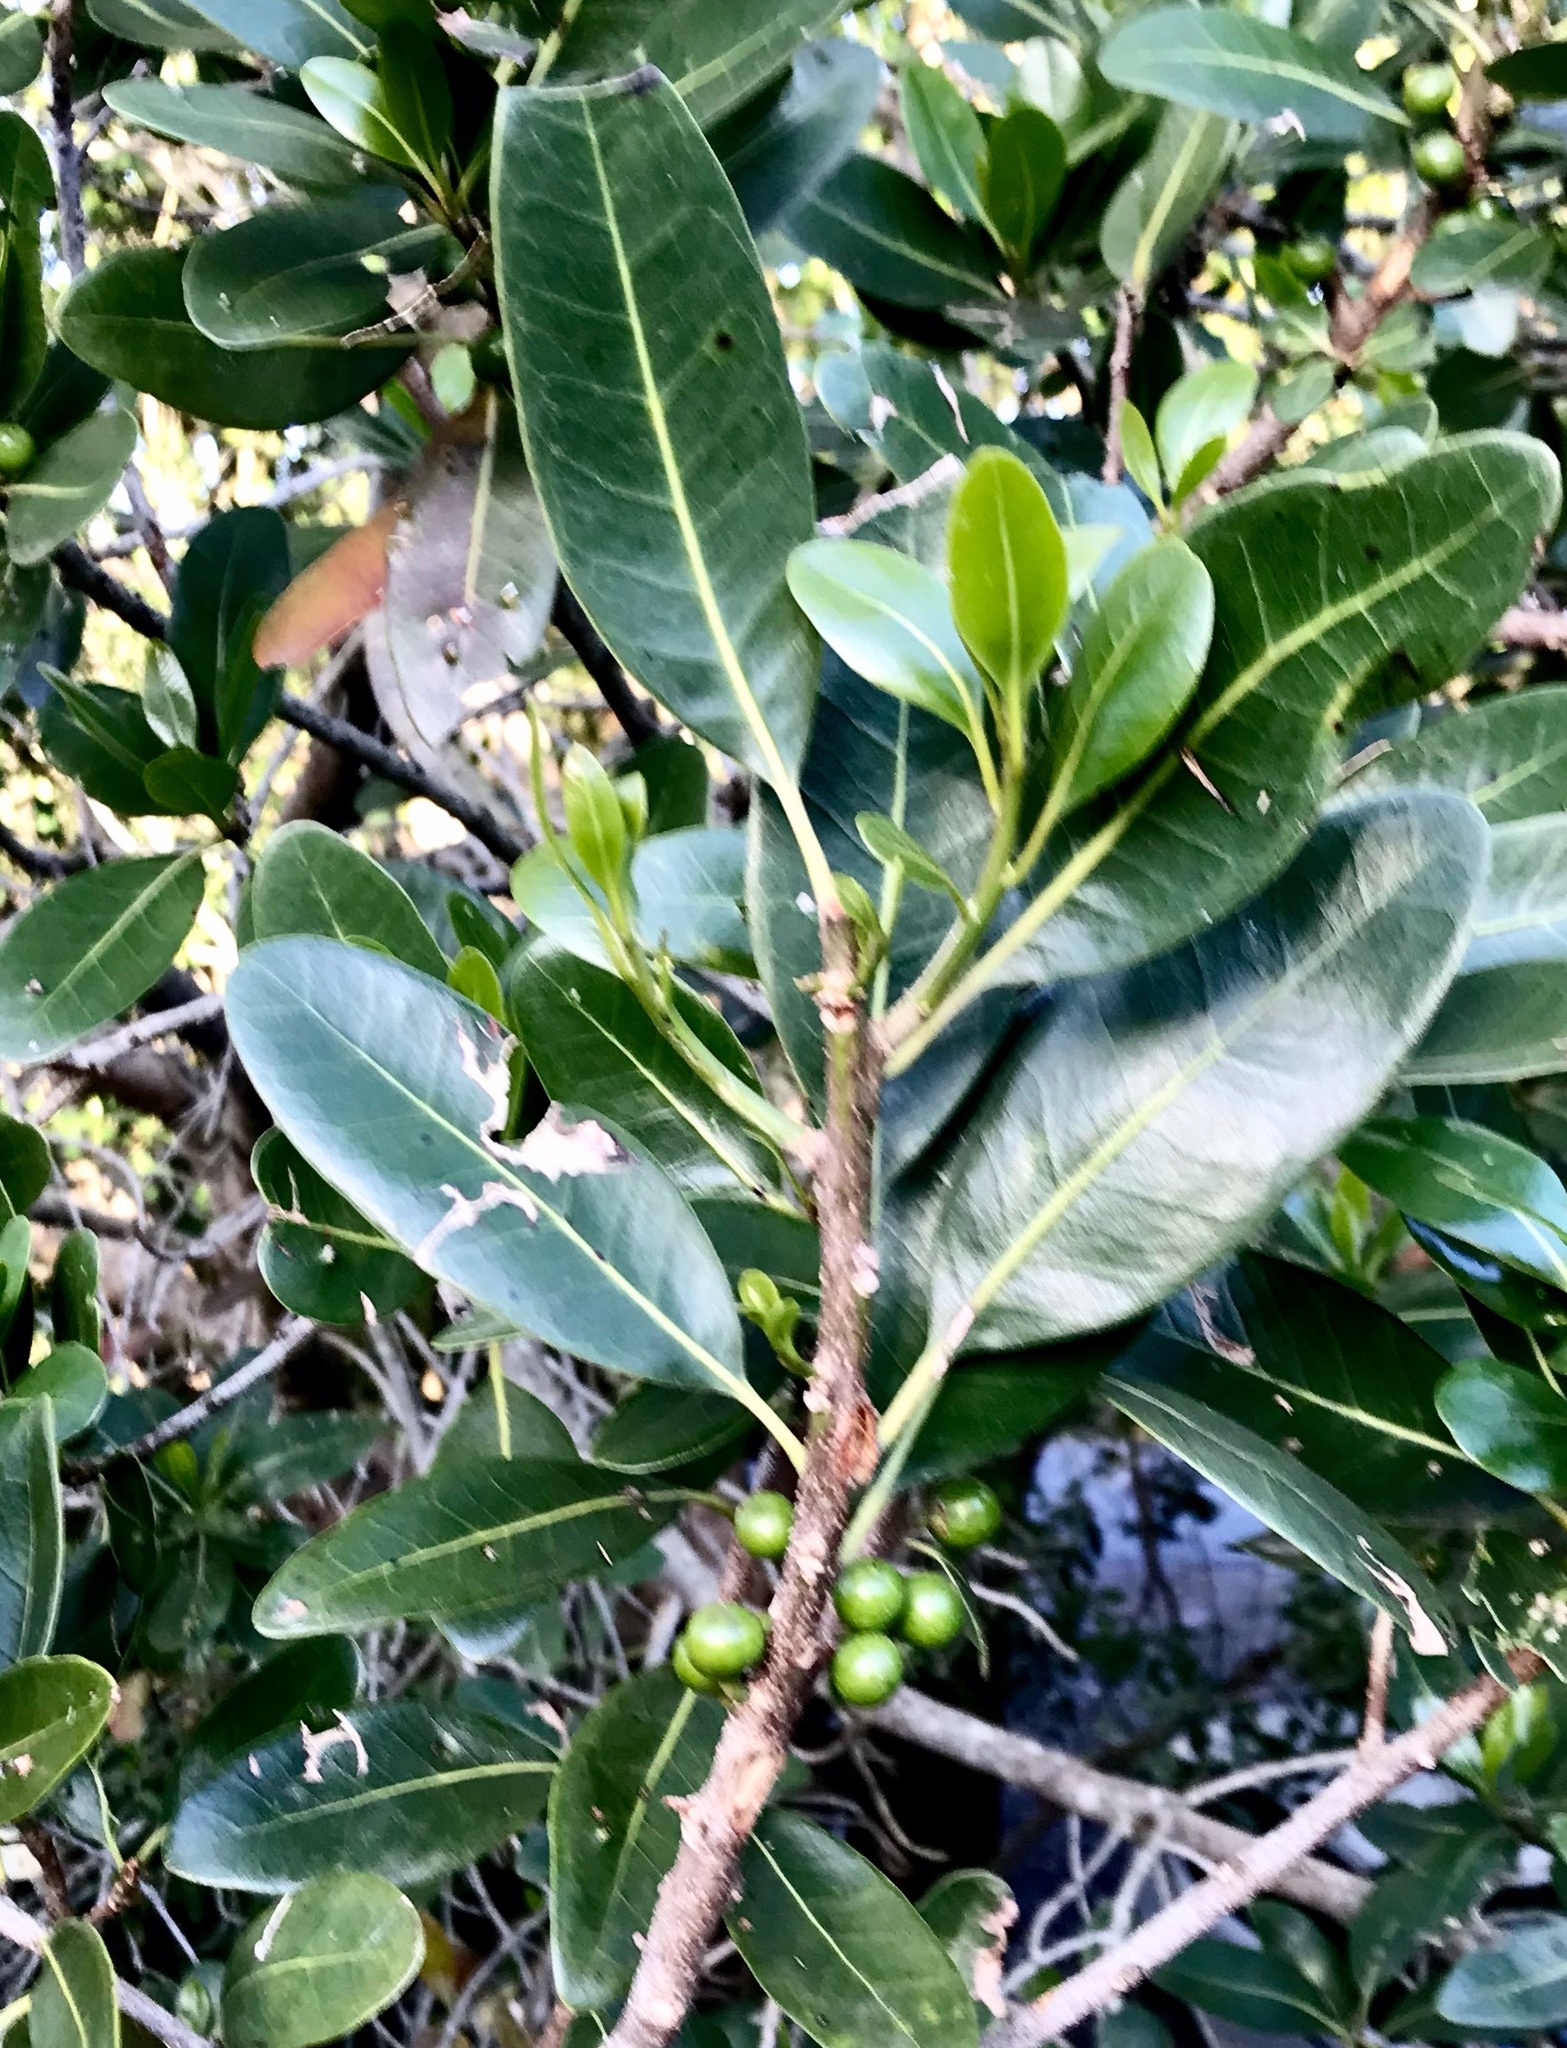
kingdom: Plantae
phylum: Tracheophyta
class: Magnoliopsida
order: Ericales
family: Sapotaceae
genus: Sideroxylon
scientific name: Sideroxylon inerme
